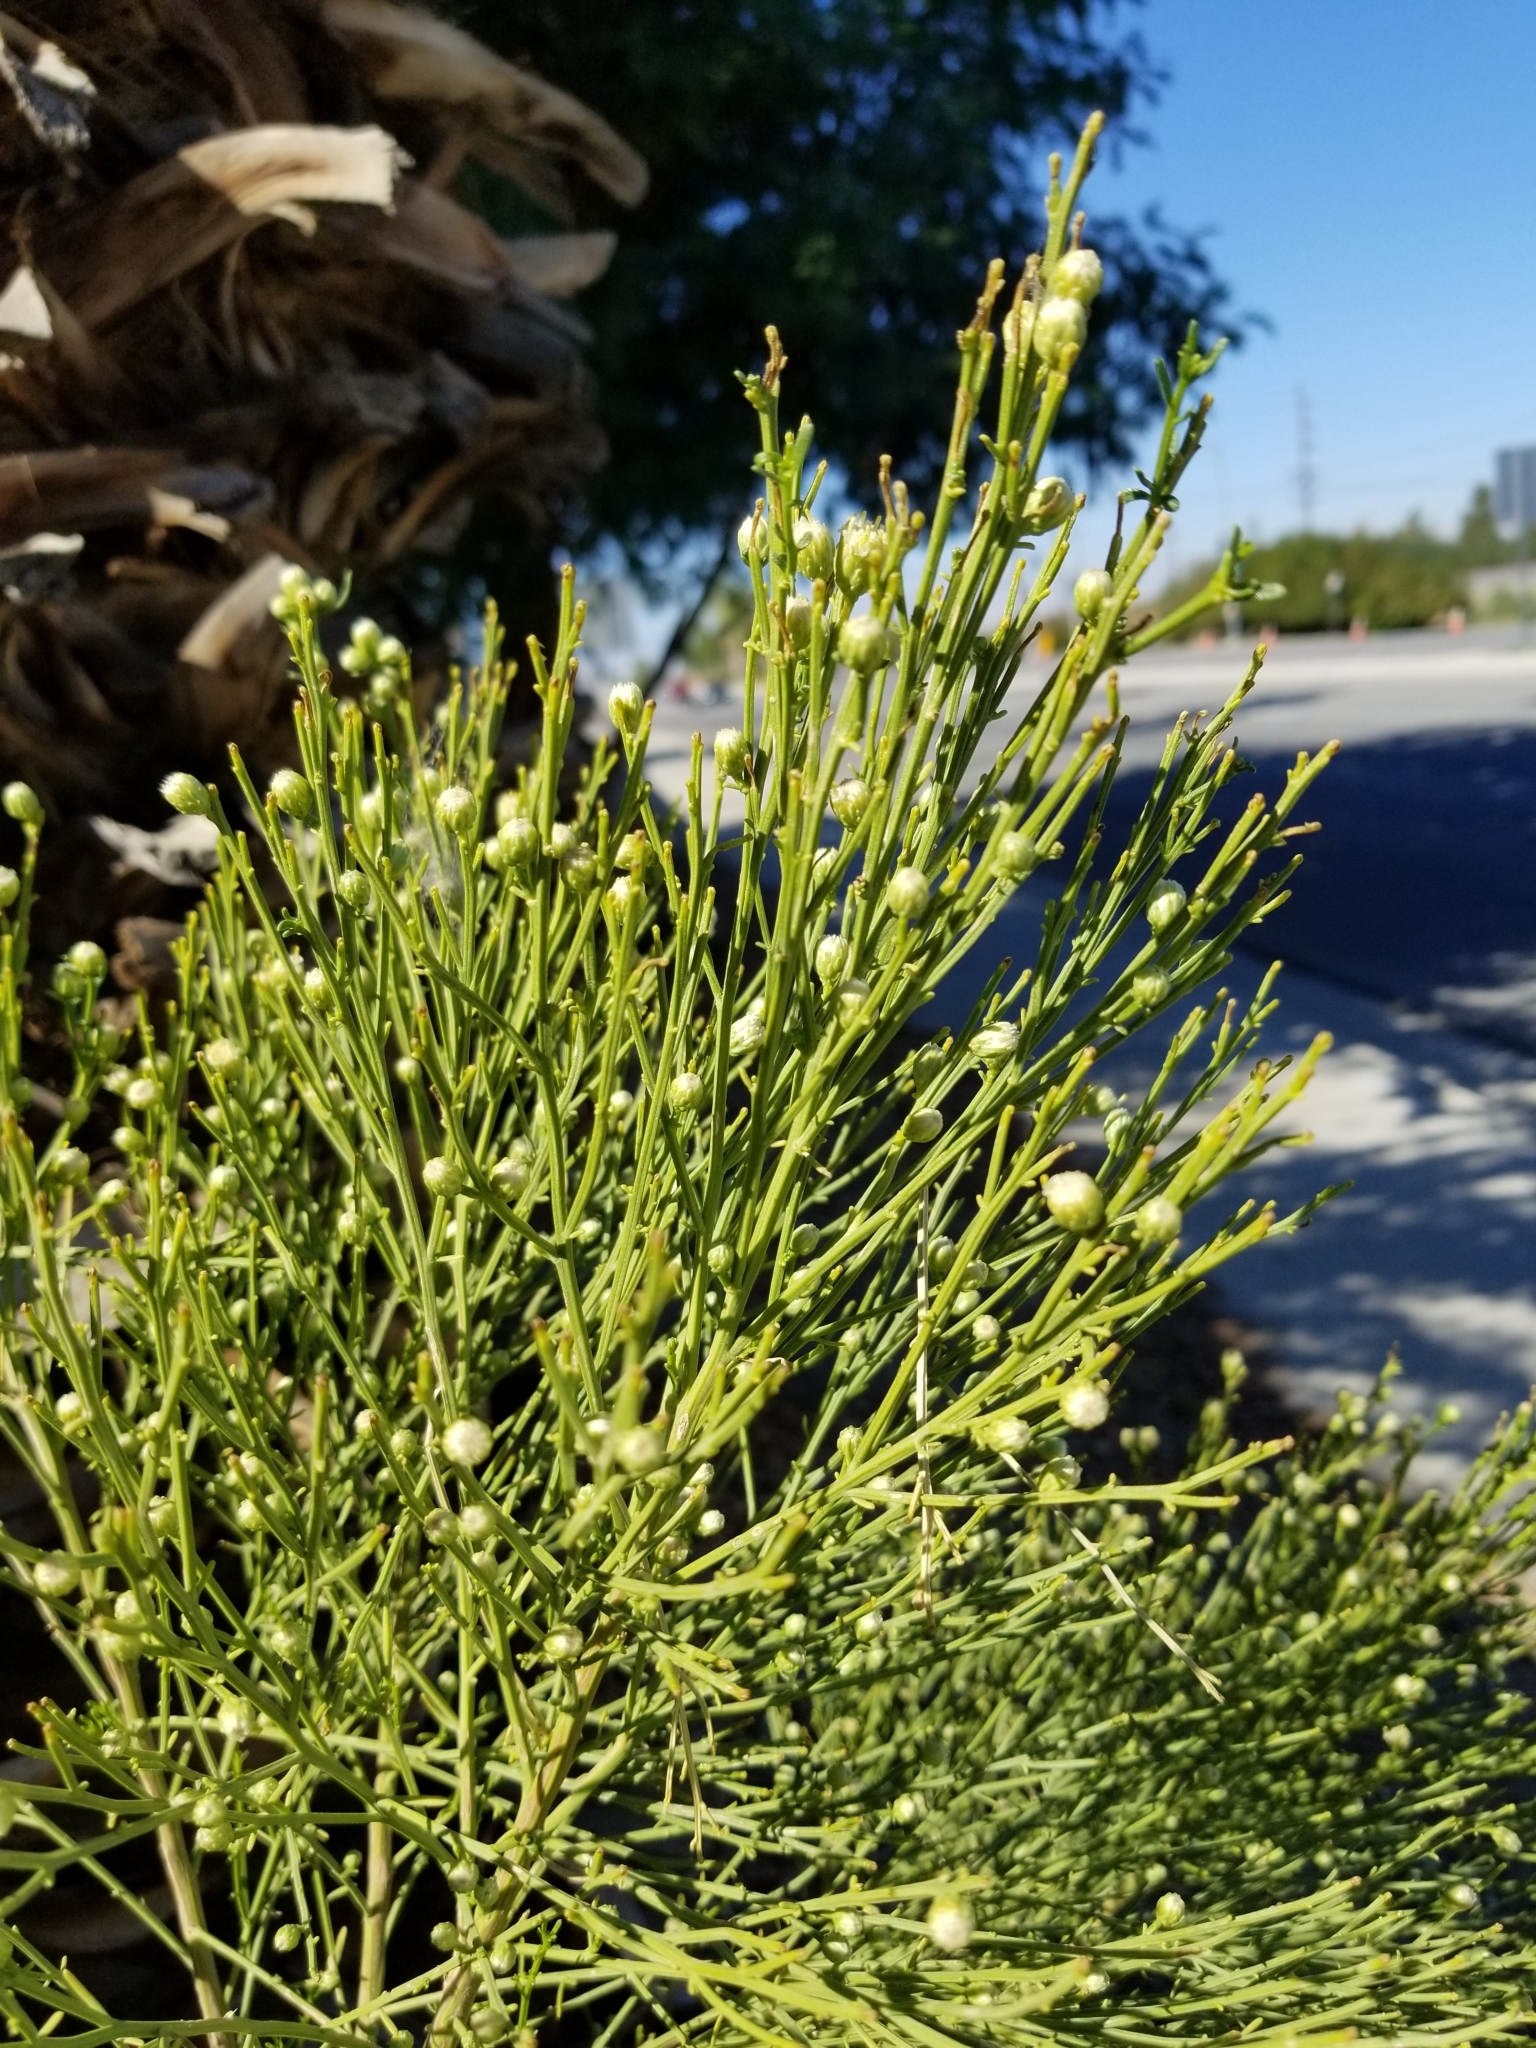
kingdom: Plantae
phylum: Tracheophyta
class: Magnoliopsida
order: Asterales
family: Asteraceae
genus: Baccharis
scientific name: Baccharis sarothroides
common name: Desert-broom
